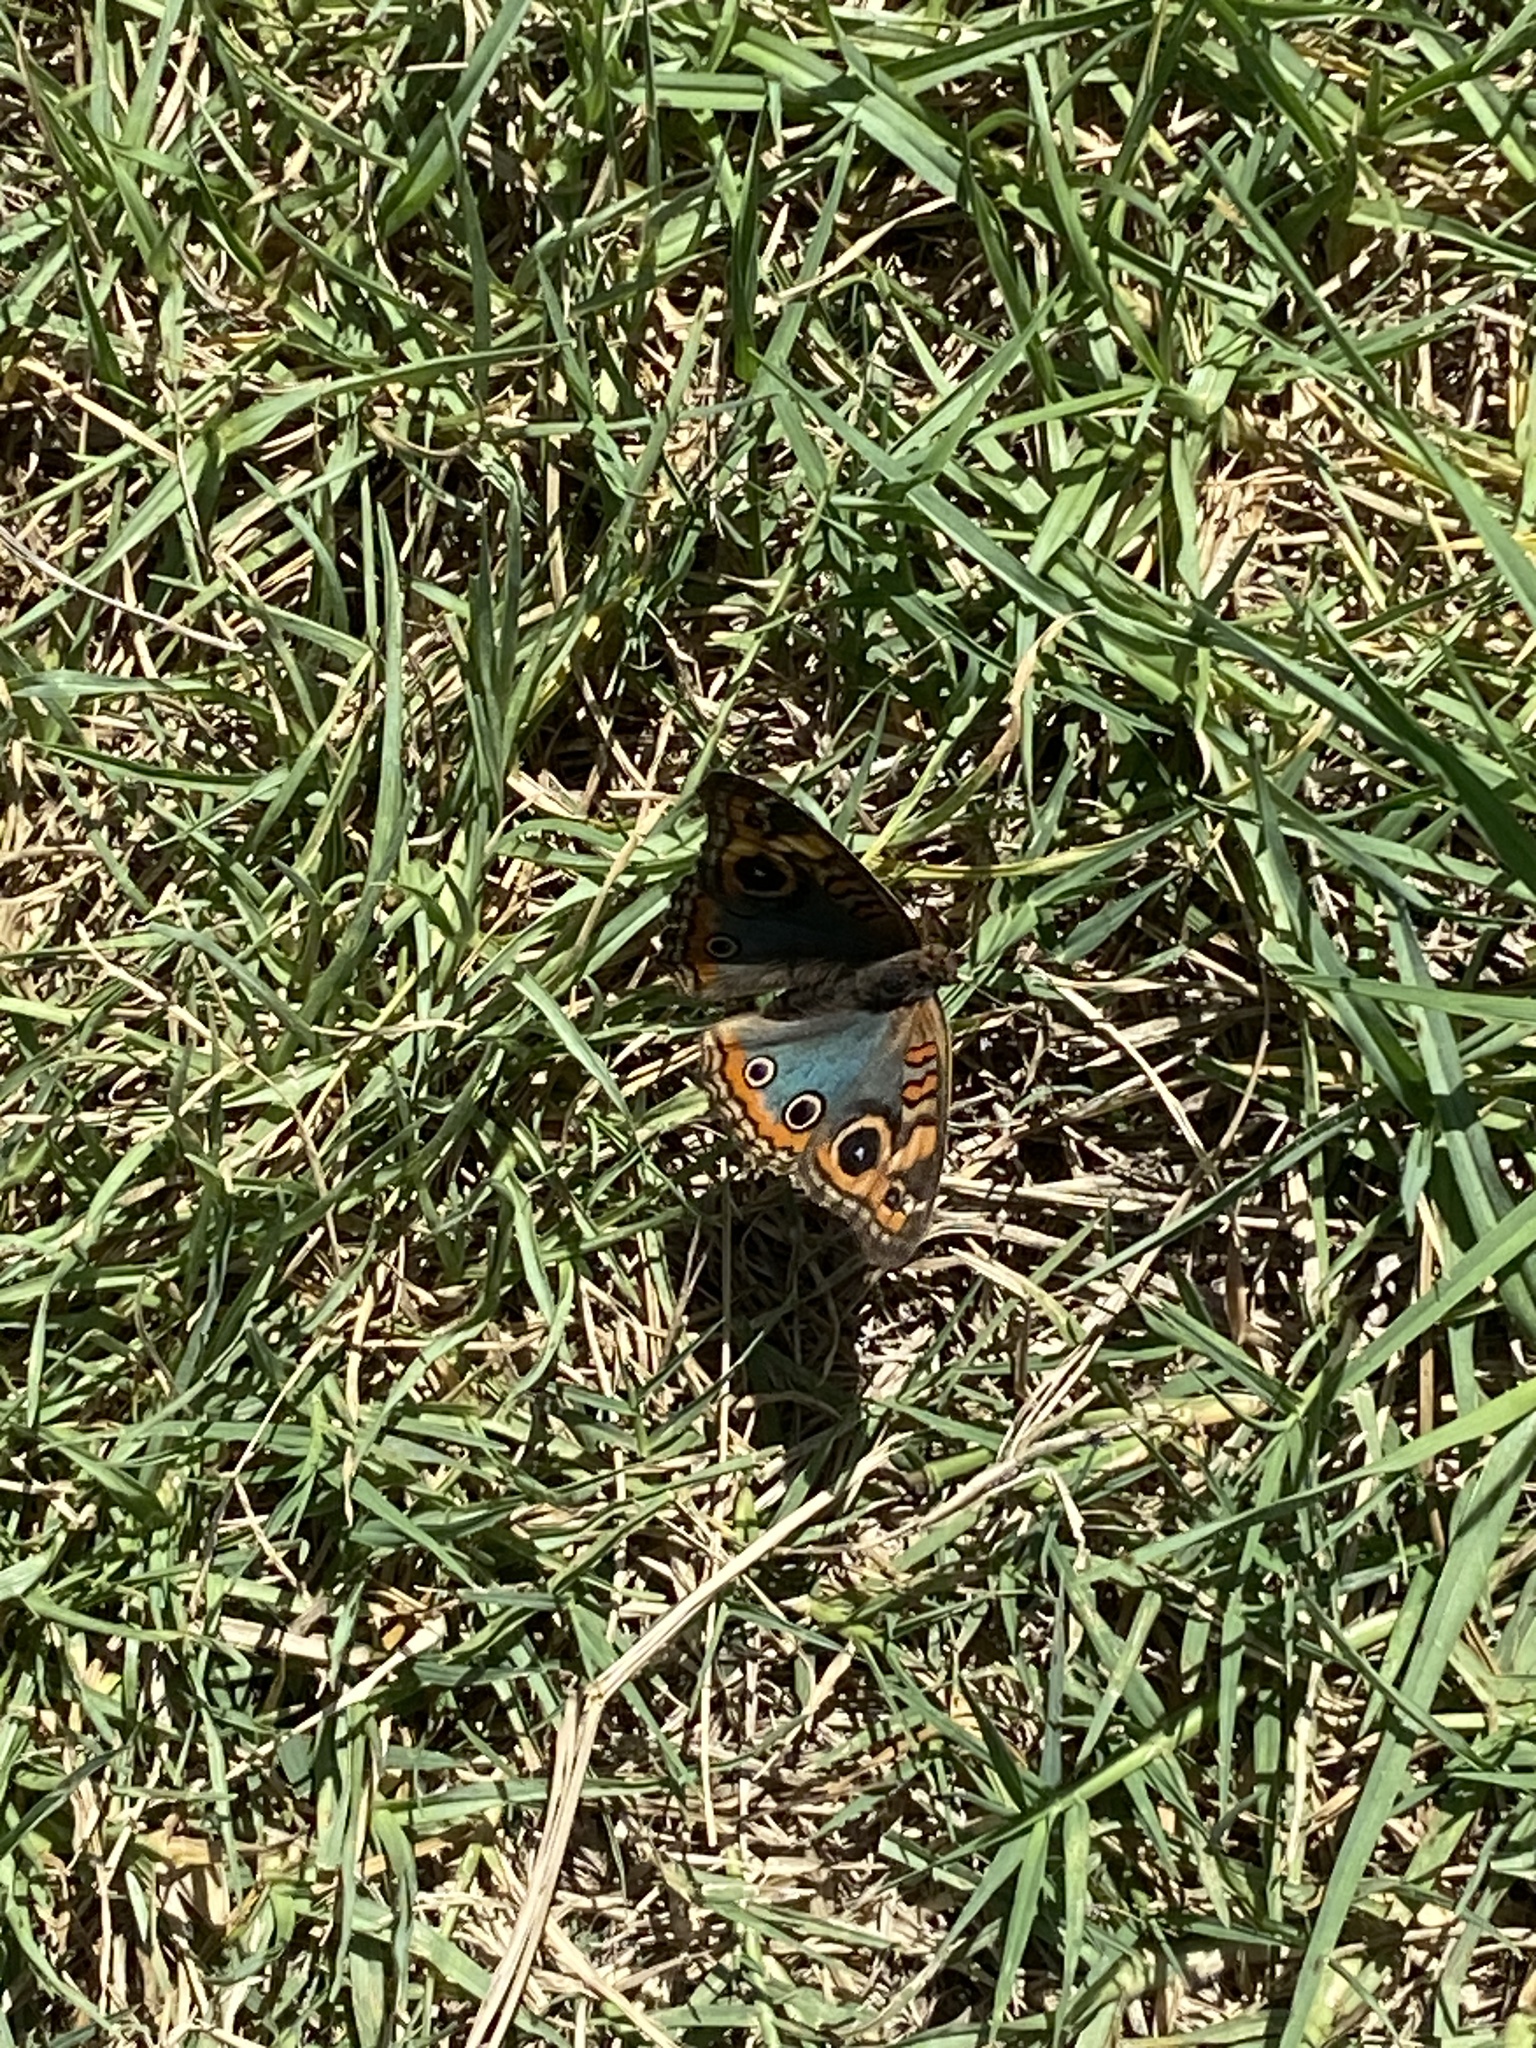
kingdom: Animalia
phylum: Arthropoda
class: Insecta
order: Lepidoptera
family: Nymphalidae
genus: Junonia
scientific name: Junonia lavinia
